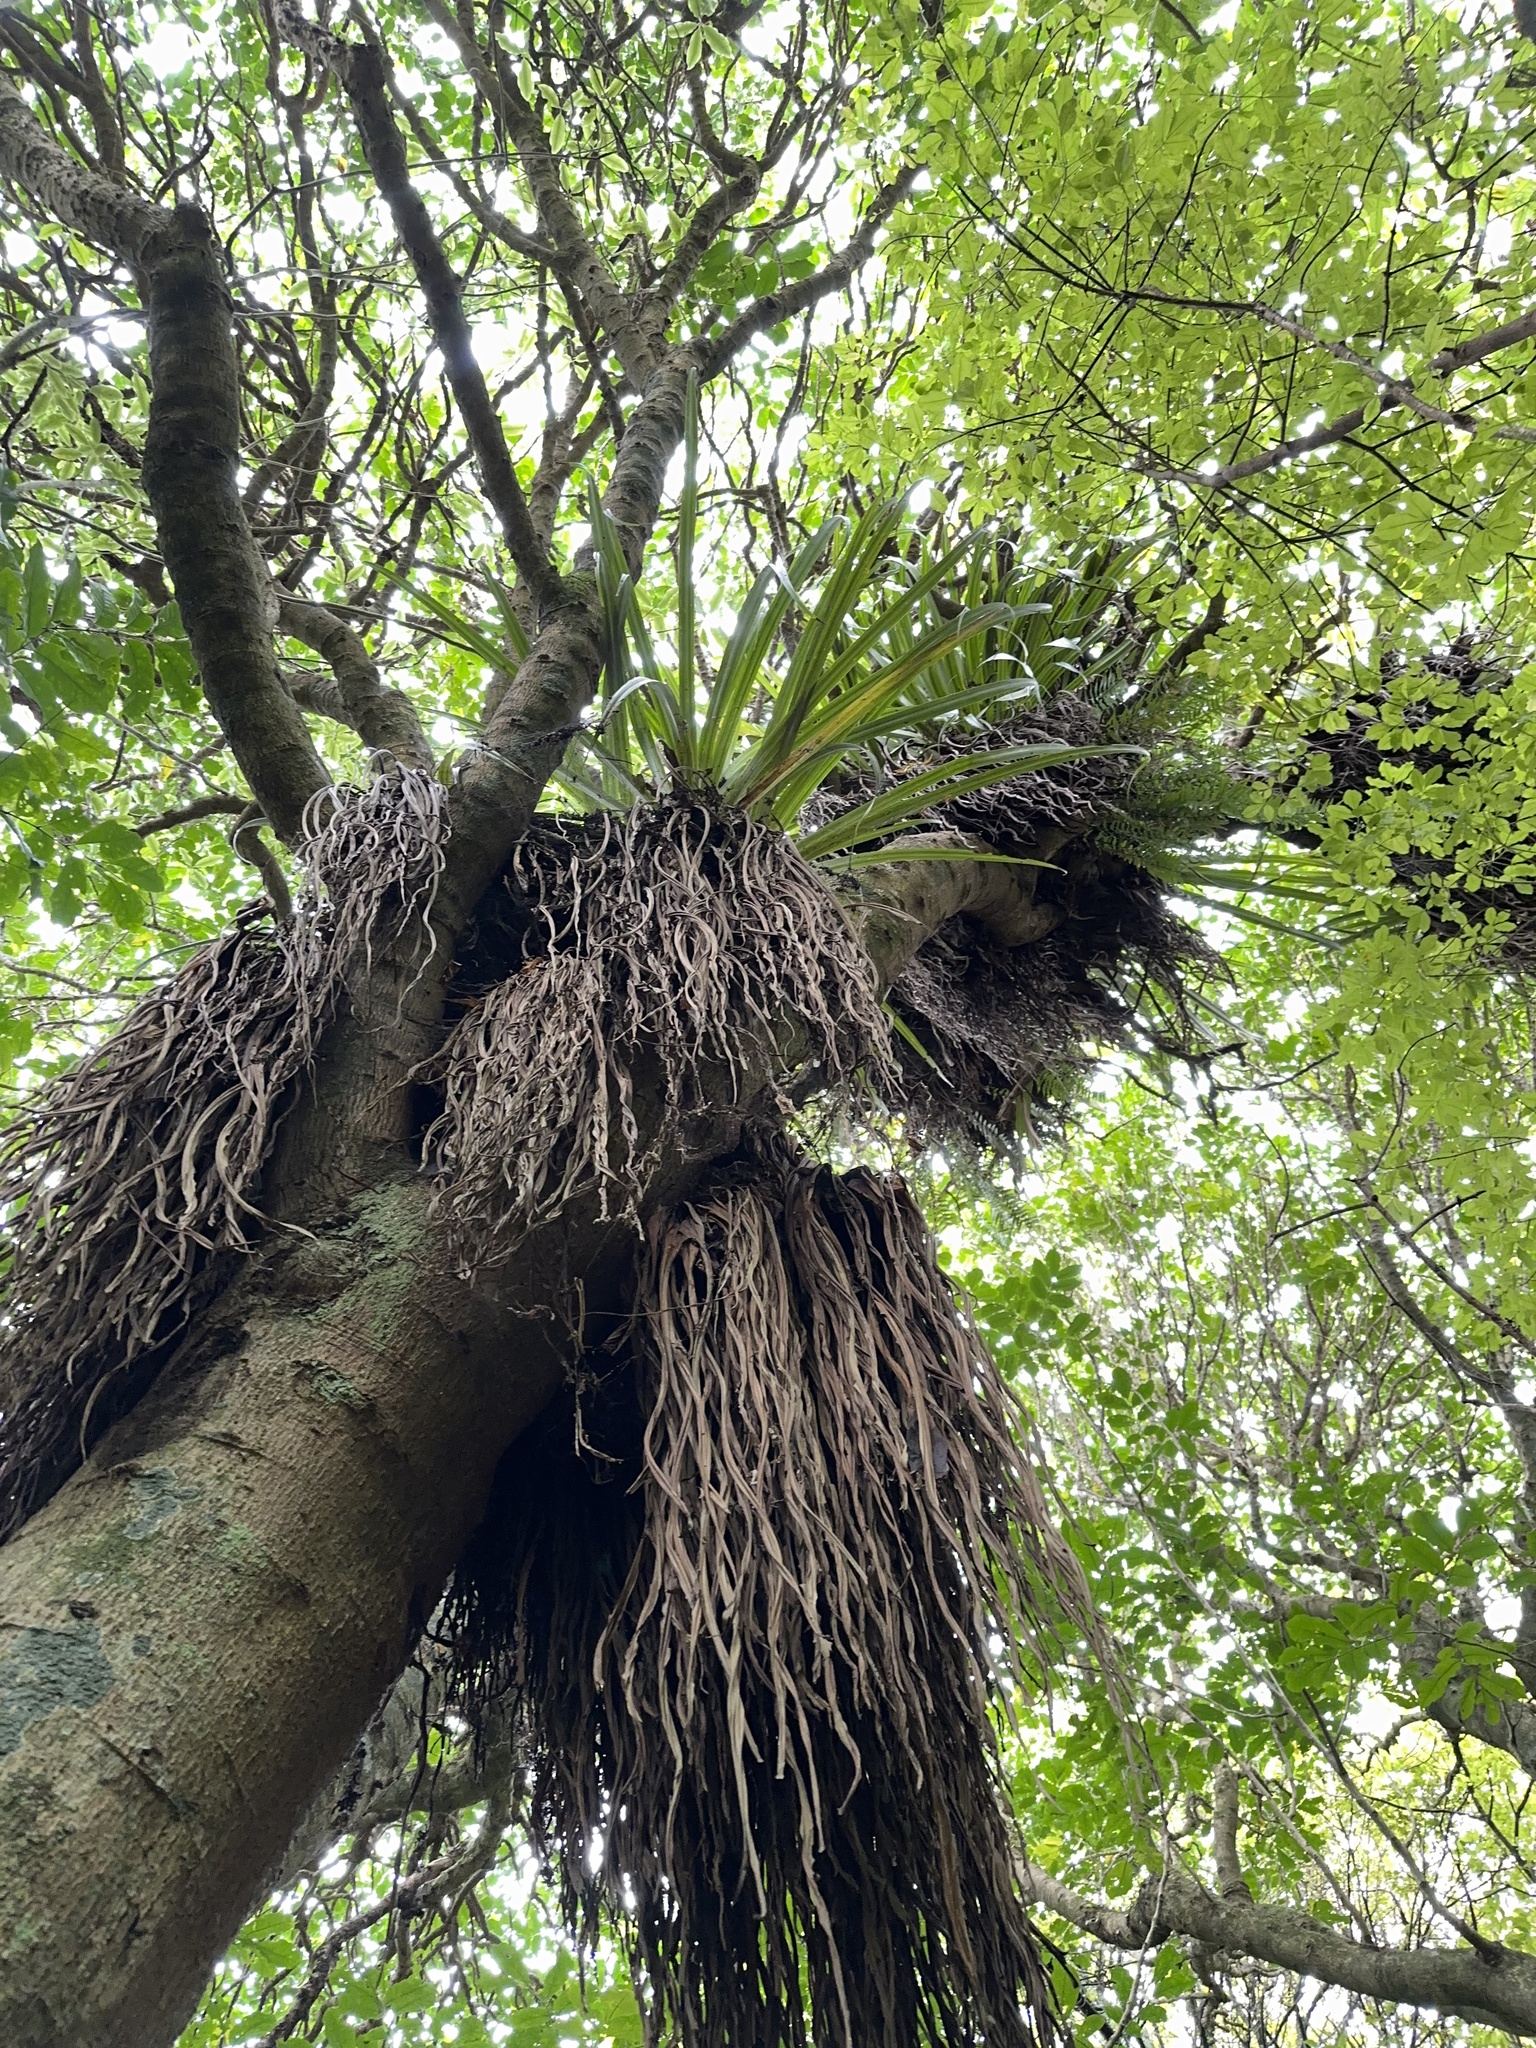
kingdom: Plantae
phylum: Tracheophyta
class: Liliopsida
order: Asparagales
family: Asteliaceae
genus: Astelia
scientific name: Astelia hastata
